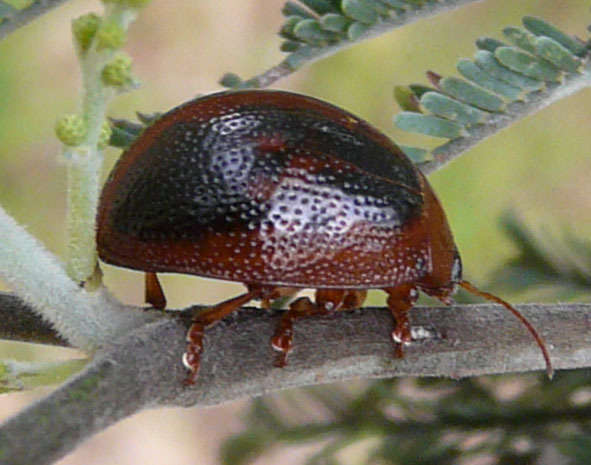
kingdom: Animalia
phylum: Arthropoda
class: Insecta
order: Coleoptera
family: Chrysomelidae
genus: Dicranosterna
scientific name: Dicranosterna
